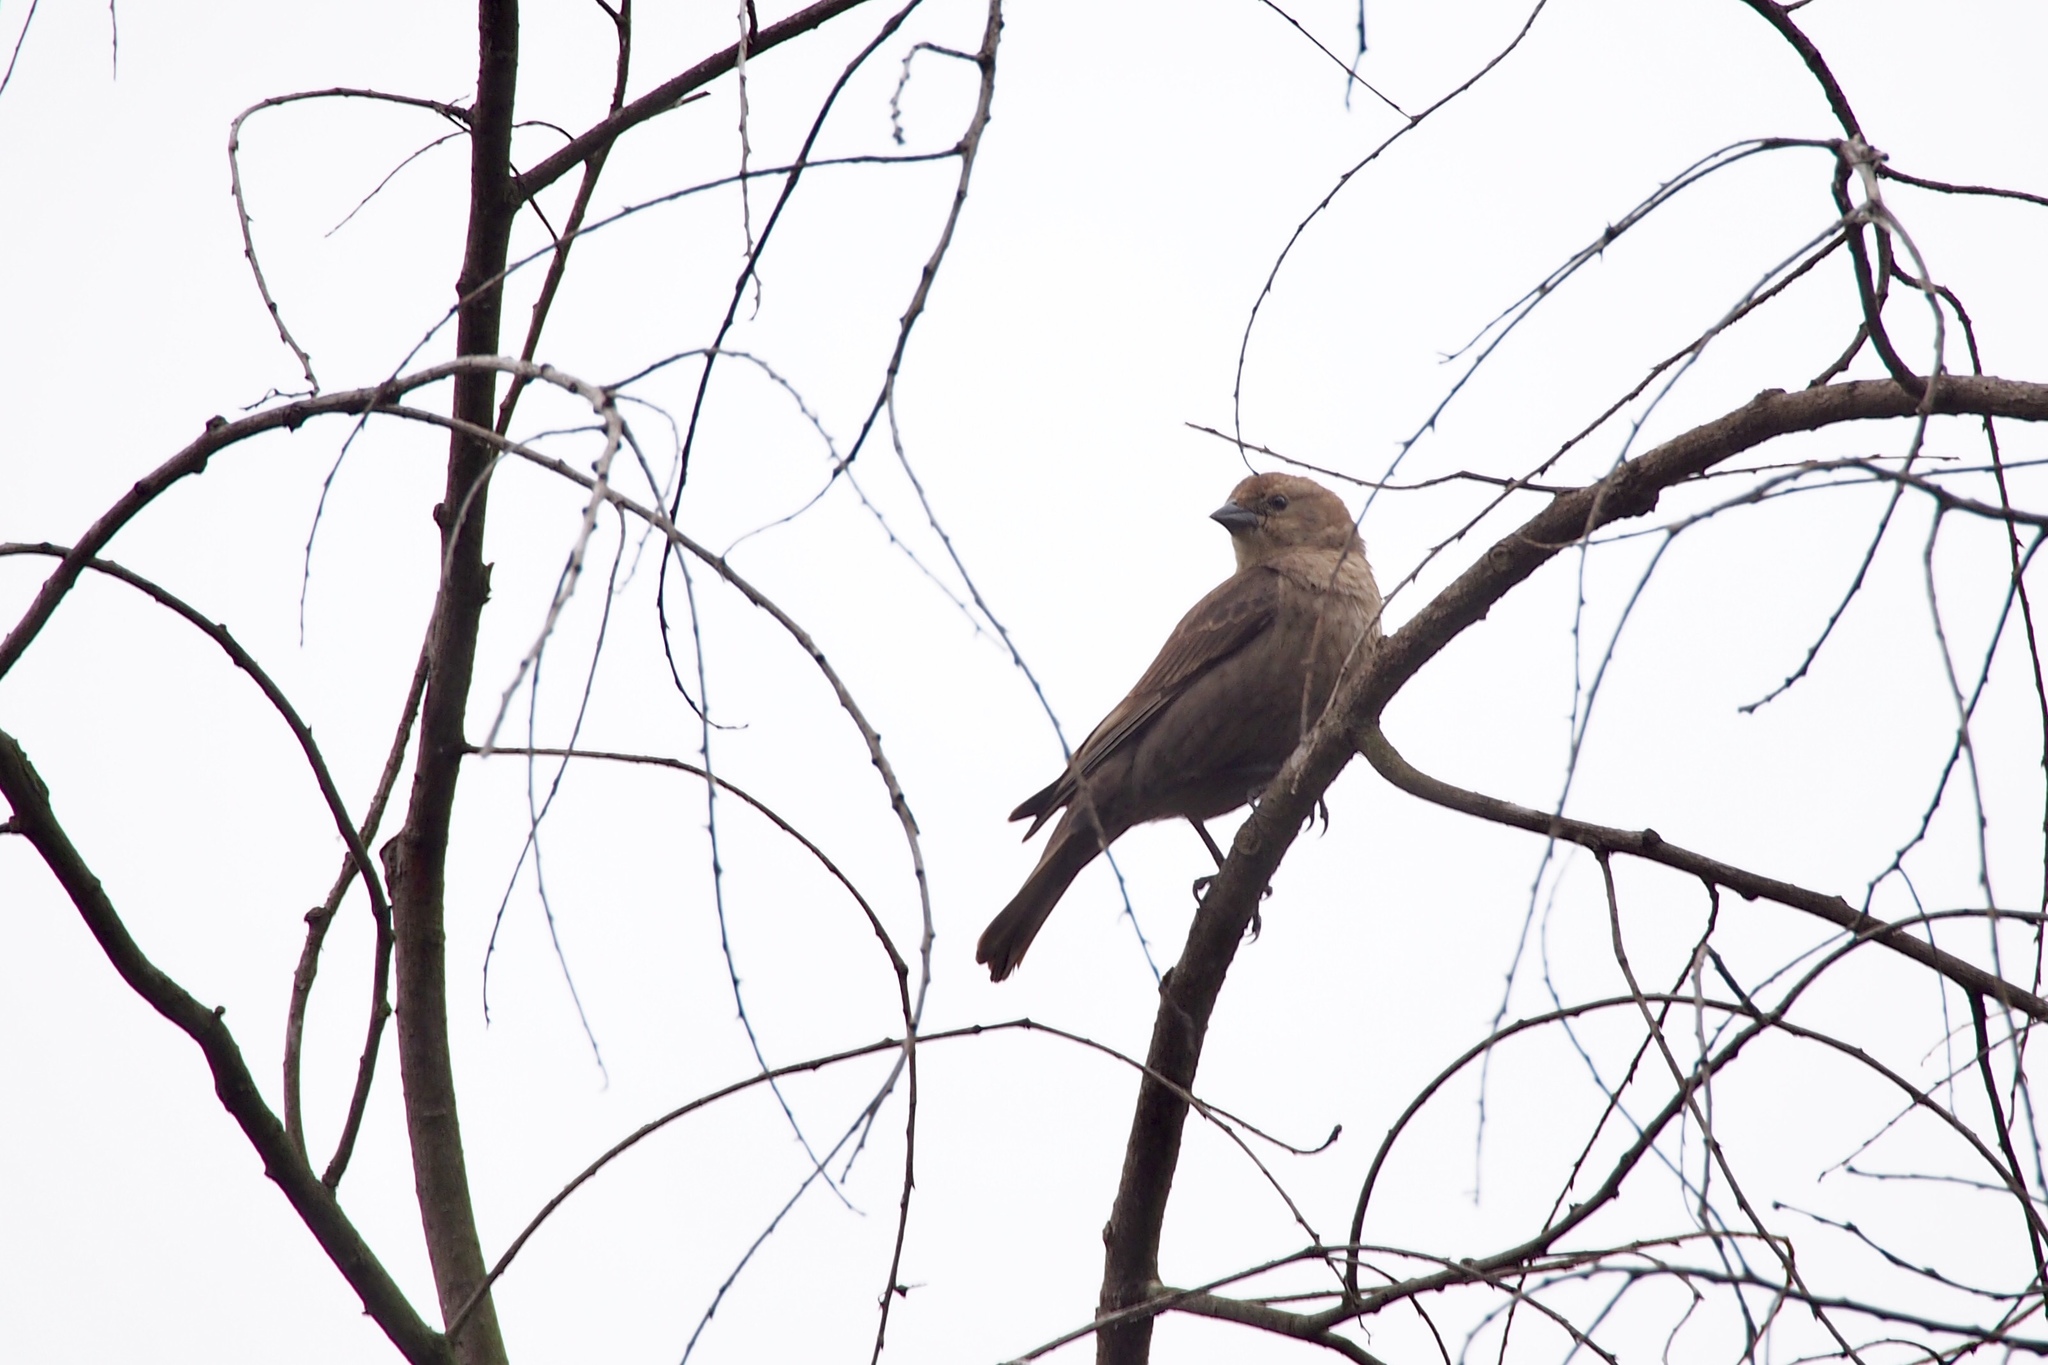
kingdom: Animalia
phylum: Chordata
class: Aves
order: Passeriformes
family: Icteridae
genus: Molothrus
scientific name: Molothrus ater
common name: Brown-headed cowbird
